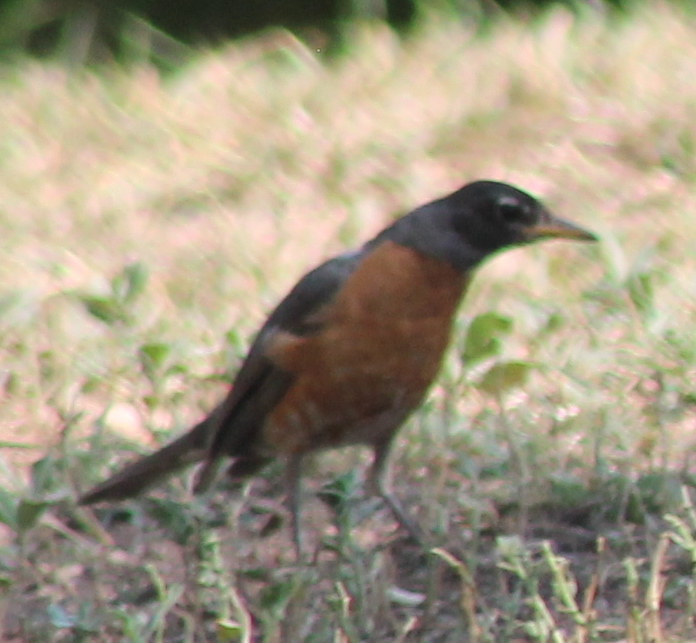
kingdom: Animalia
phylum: Chordata
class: Aves
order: Passeriformes
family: Turdidae
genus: Turdus
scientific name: Turdus migratorius
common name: American robin
